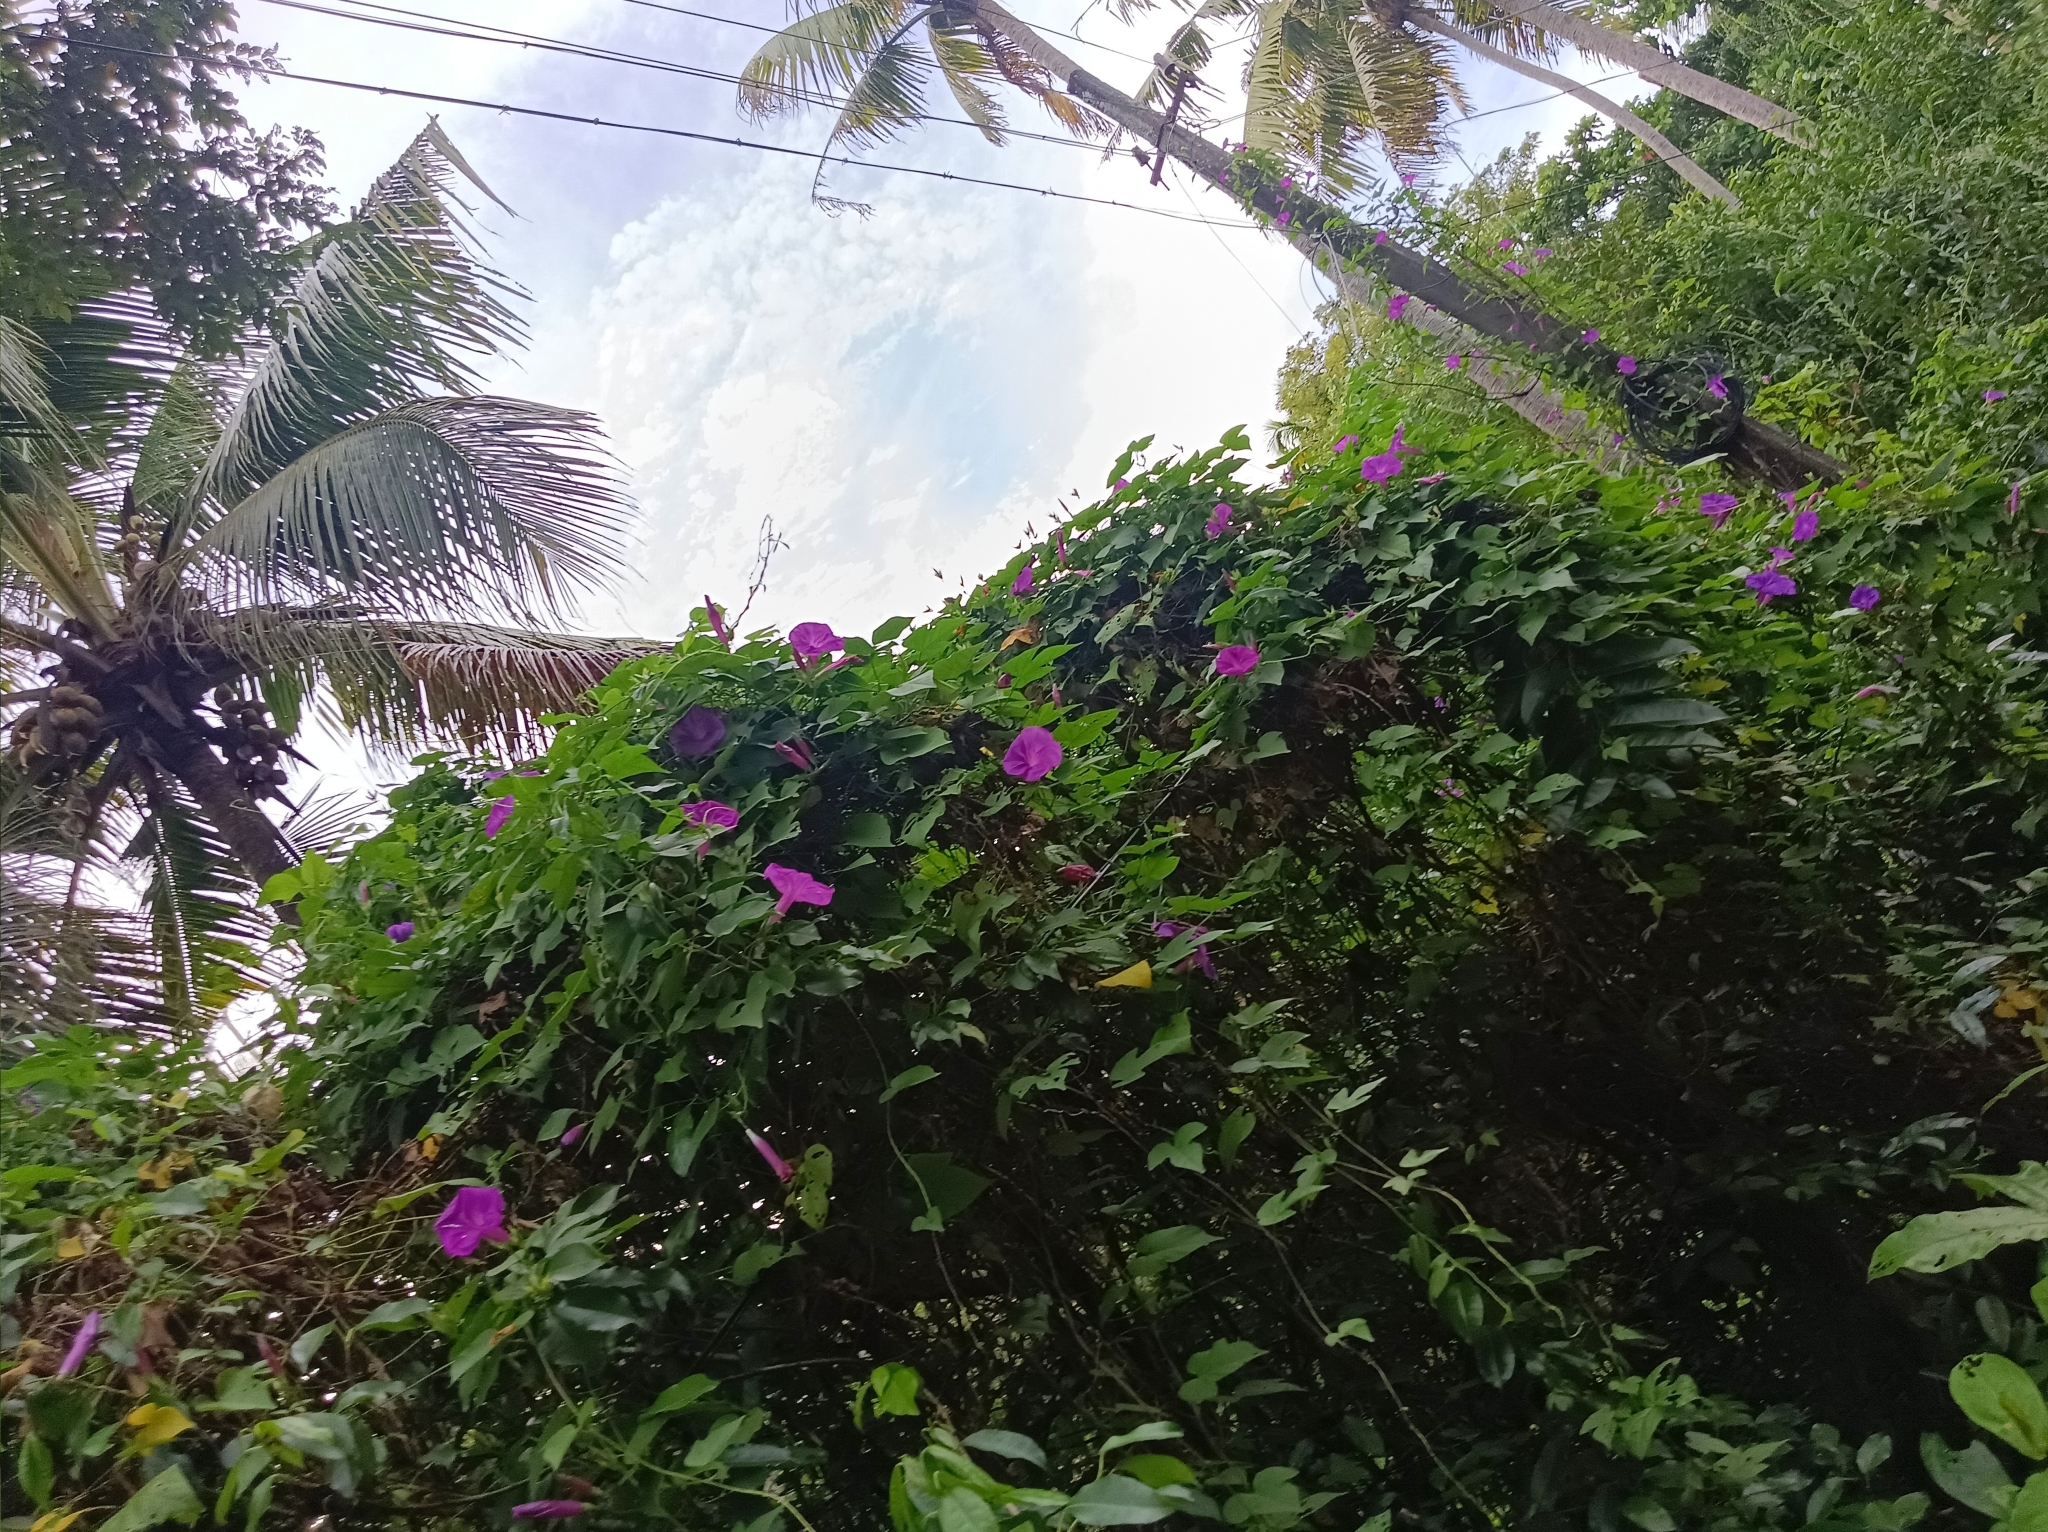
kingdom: Plantae
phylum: Tracheophyta
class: Magnoliopsida
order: Solanales
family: Convolvulaceae
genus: Ipomoea
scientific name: Ipomoea indica
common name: Blue dawnflower
